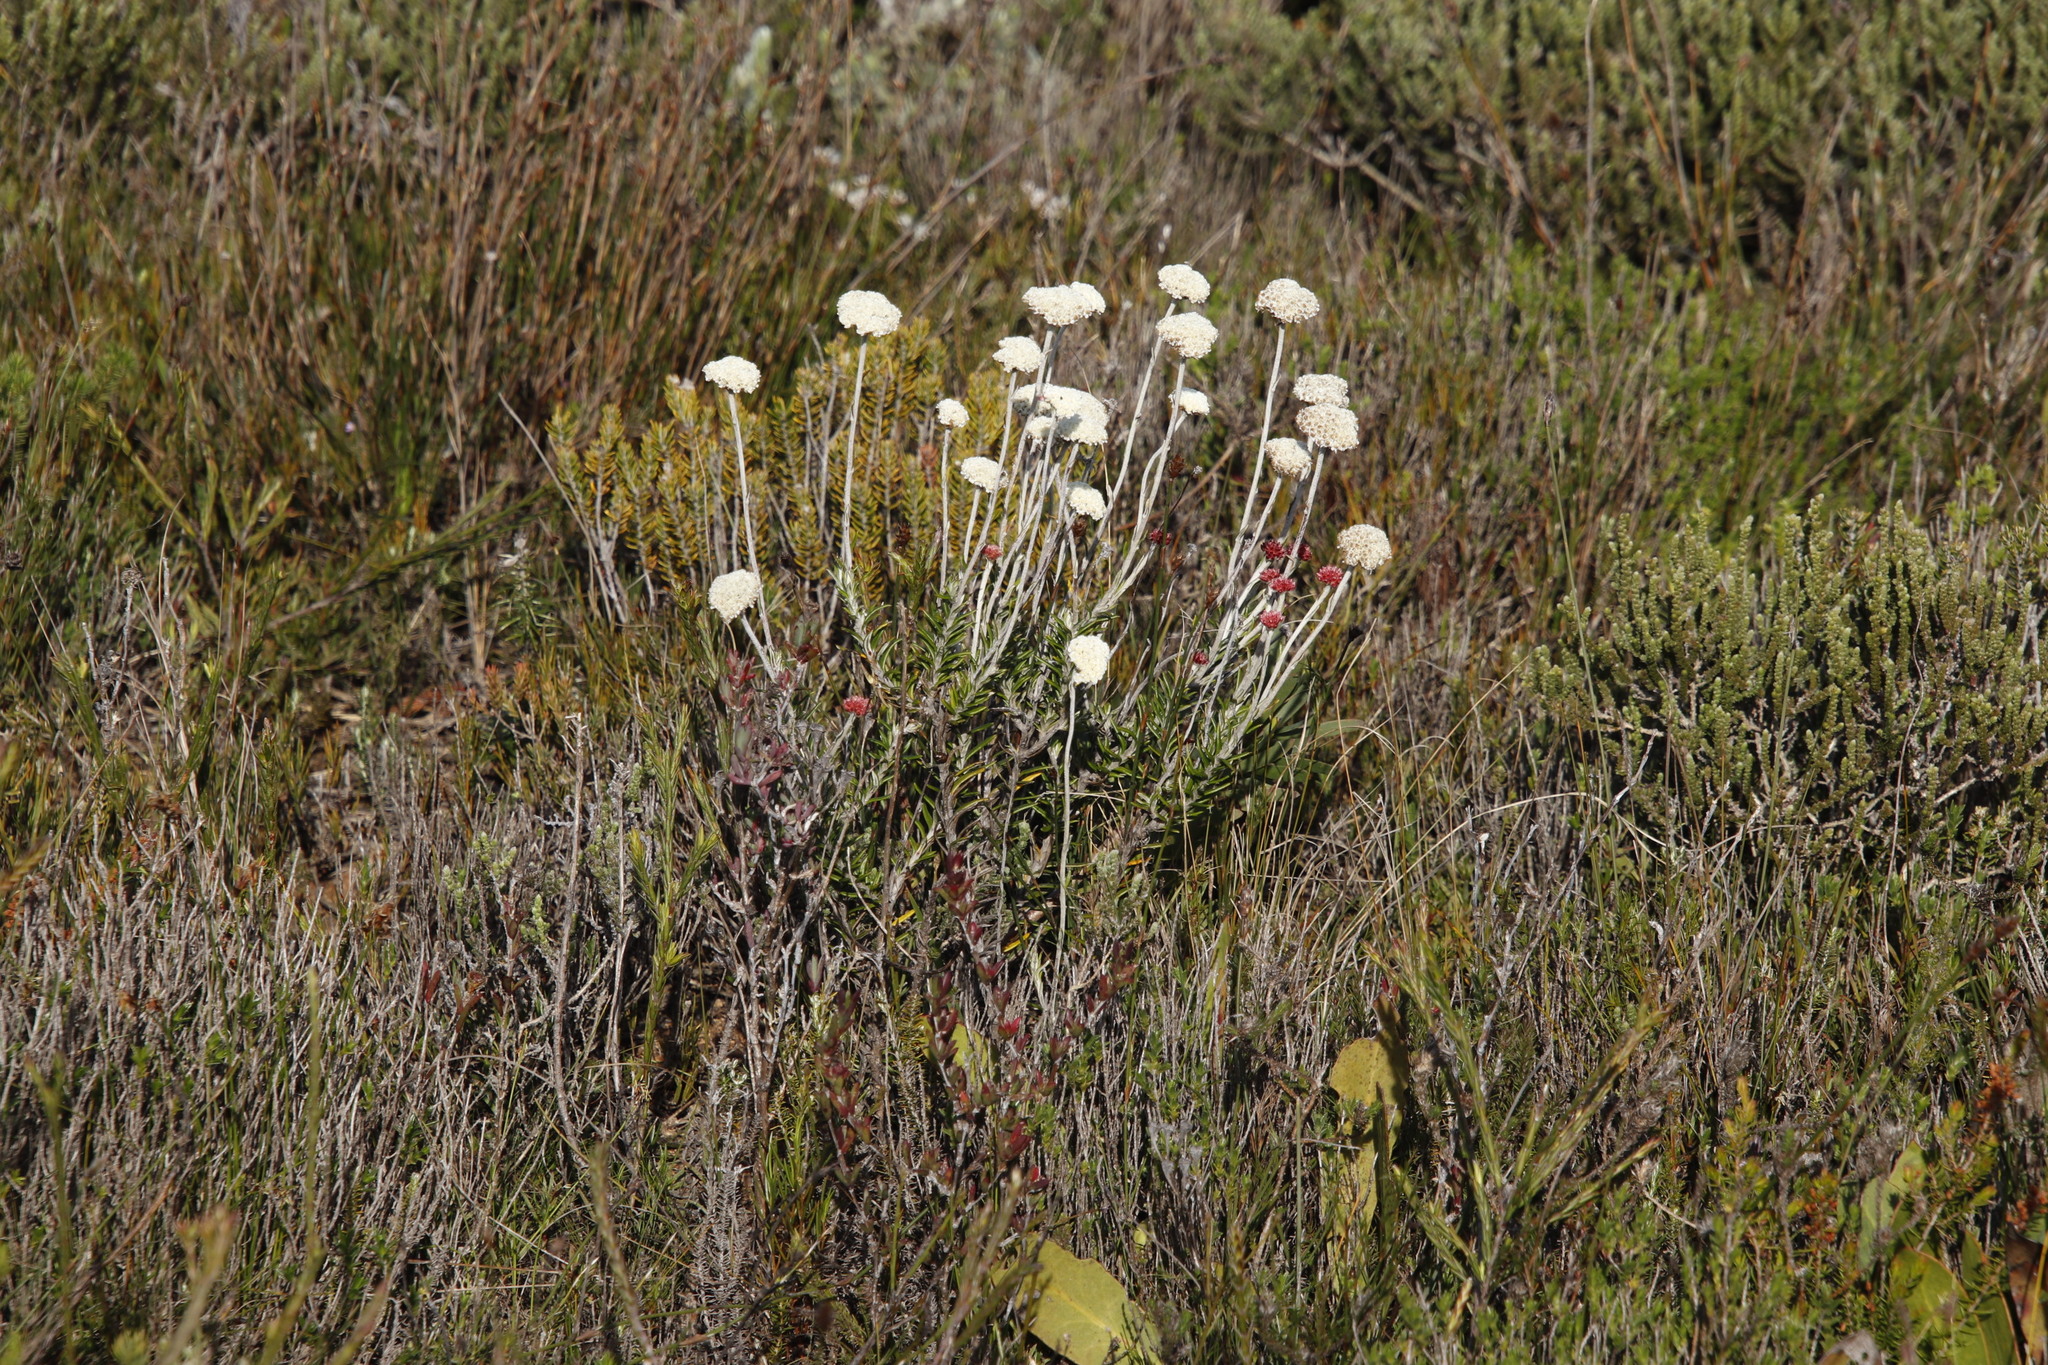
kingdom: Plantae
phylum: Tracheophyta
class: Magnoliopsida
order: Asterales
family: Asteraceae
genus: Anaxeton
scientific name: Anaxeton laeve
